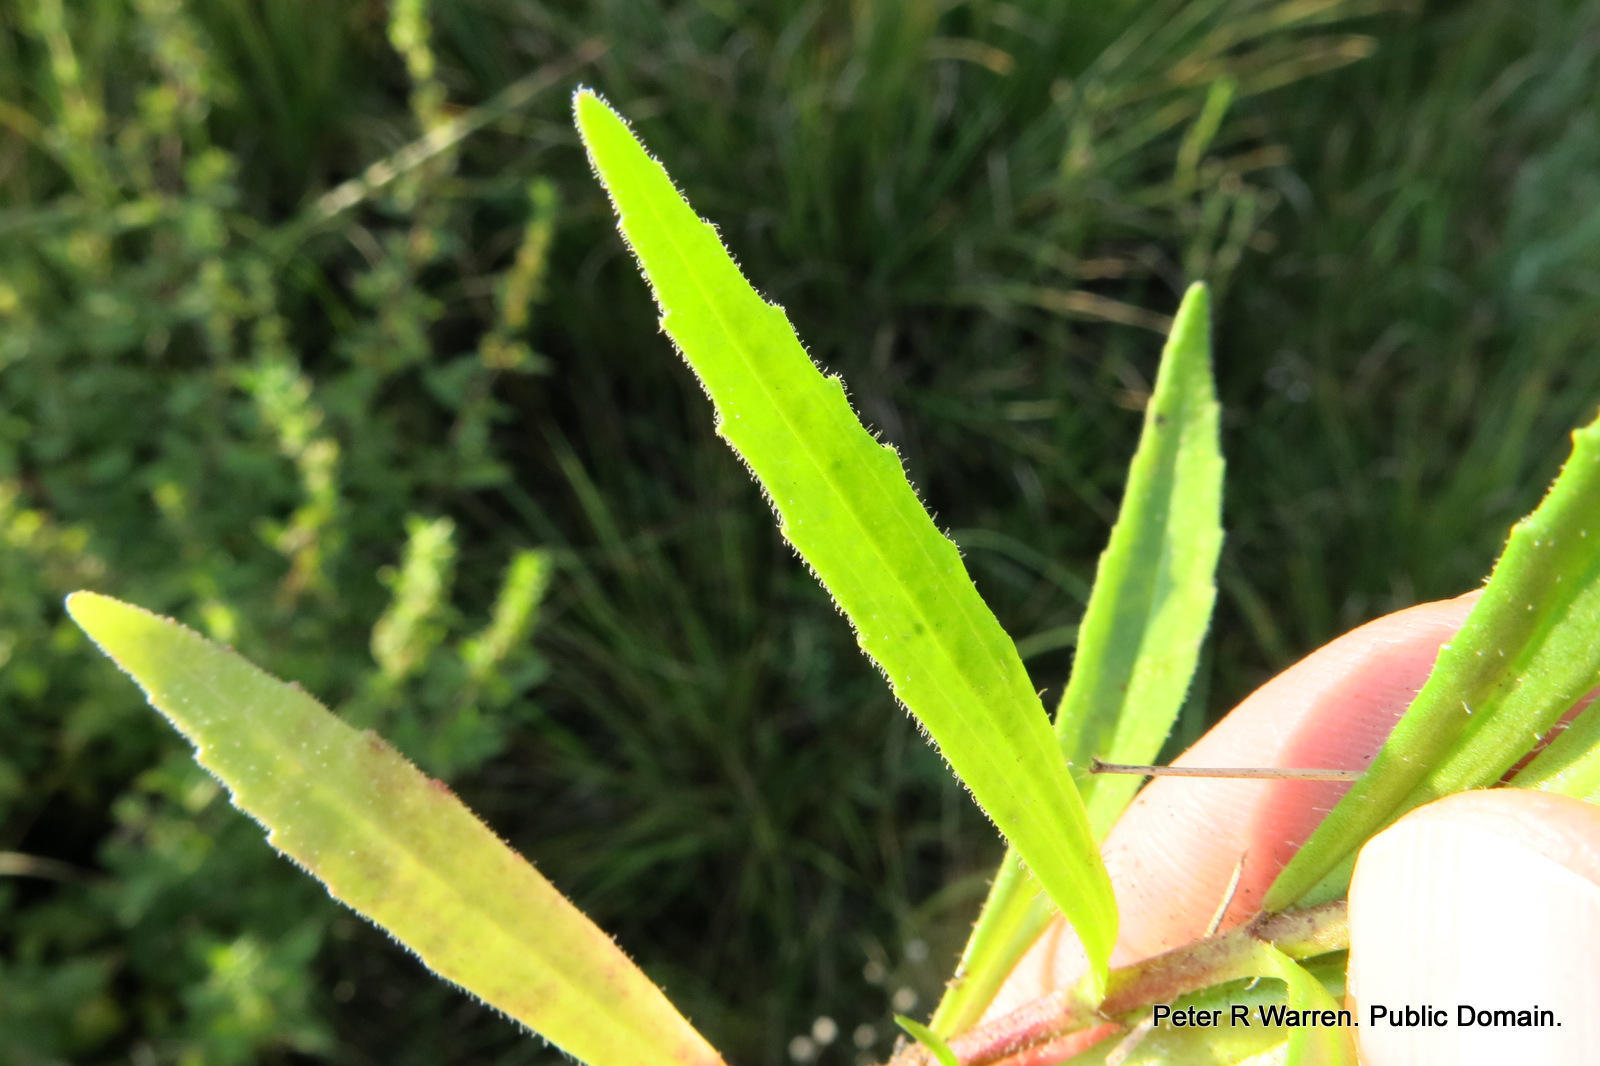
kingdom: Plantae
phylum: Tracheophyta
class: Magnoliopsida
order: Lamiales
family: Scrophulariaceae
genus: Zaluzianskya
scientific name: Zaluzianskya natalensis
